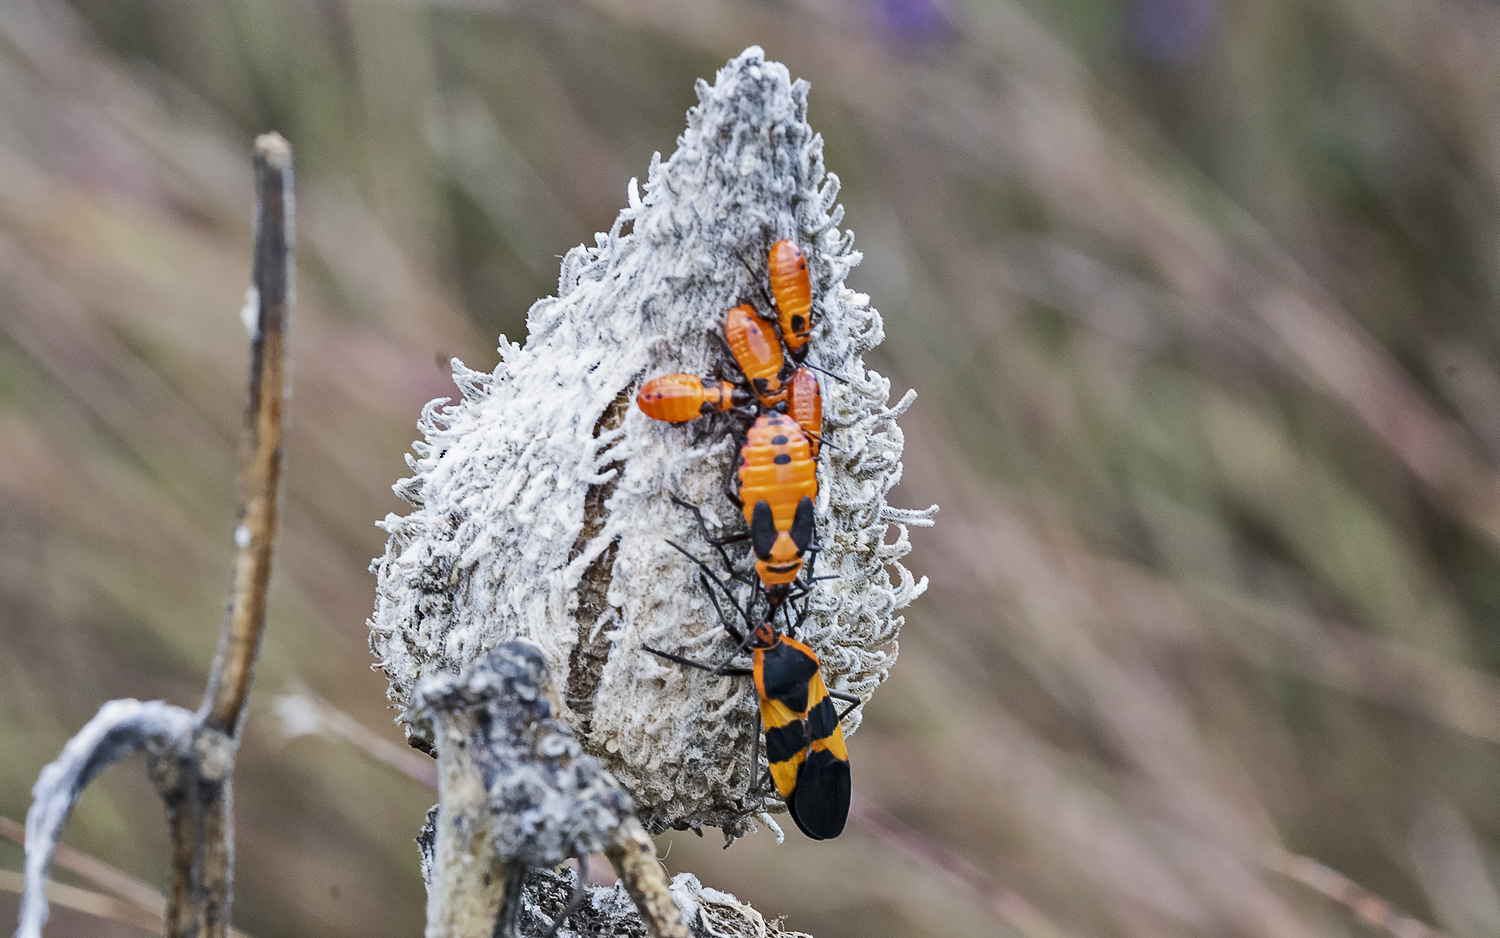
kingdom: Animalia
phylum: Arthropoda
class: Insecta
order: Hemiptera
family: Lygaeidae
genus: Oncopeltus
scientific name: Oncopeltus fasciatus
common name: Large milkweed bug
